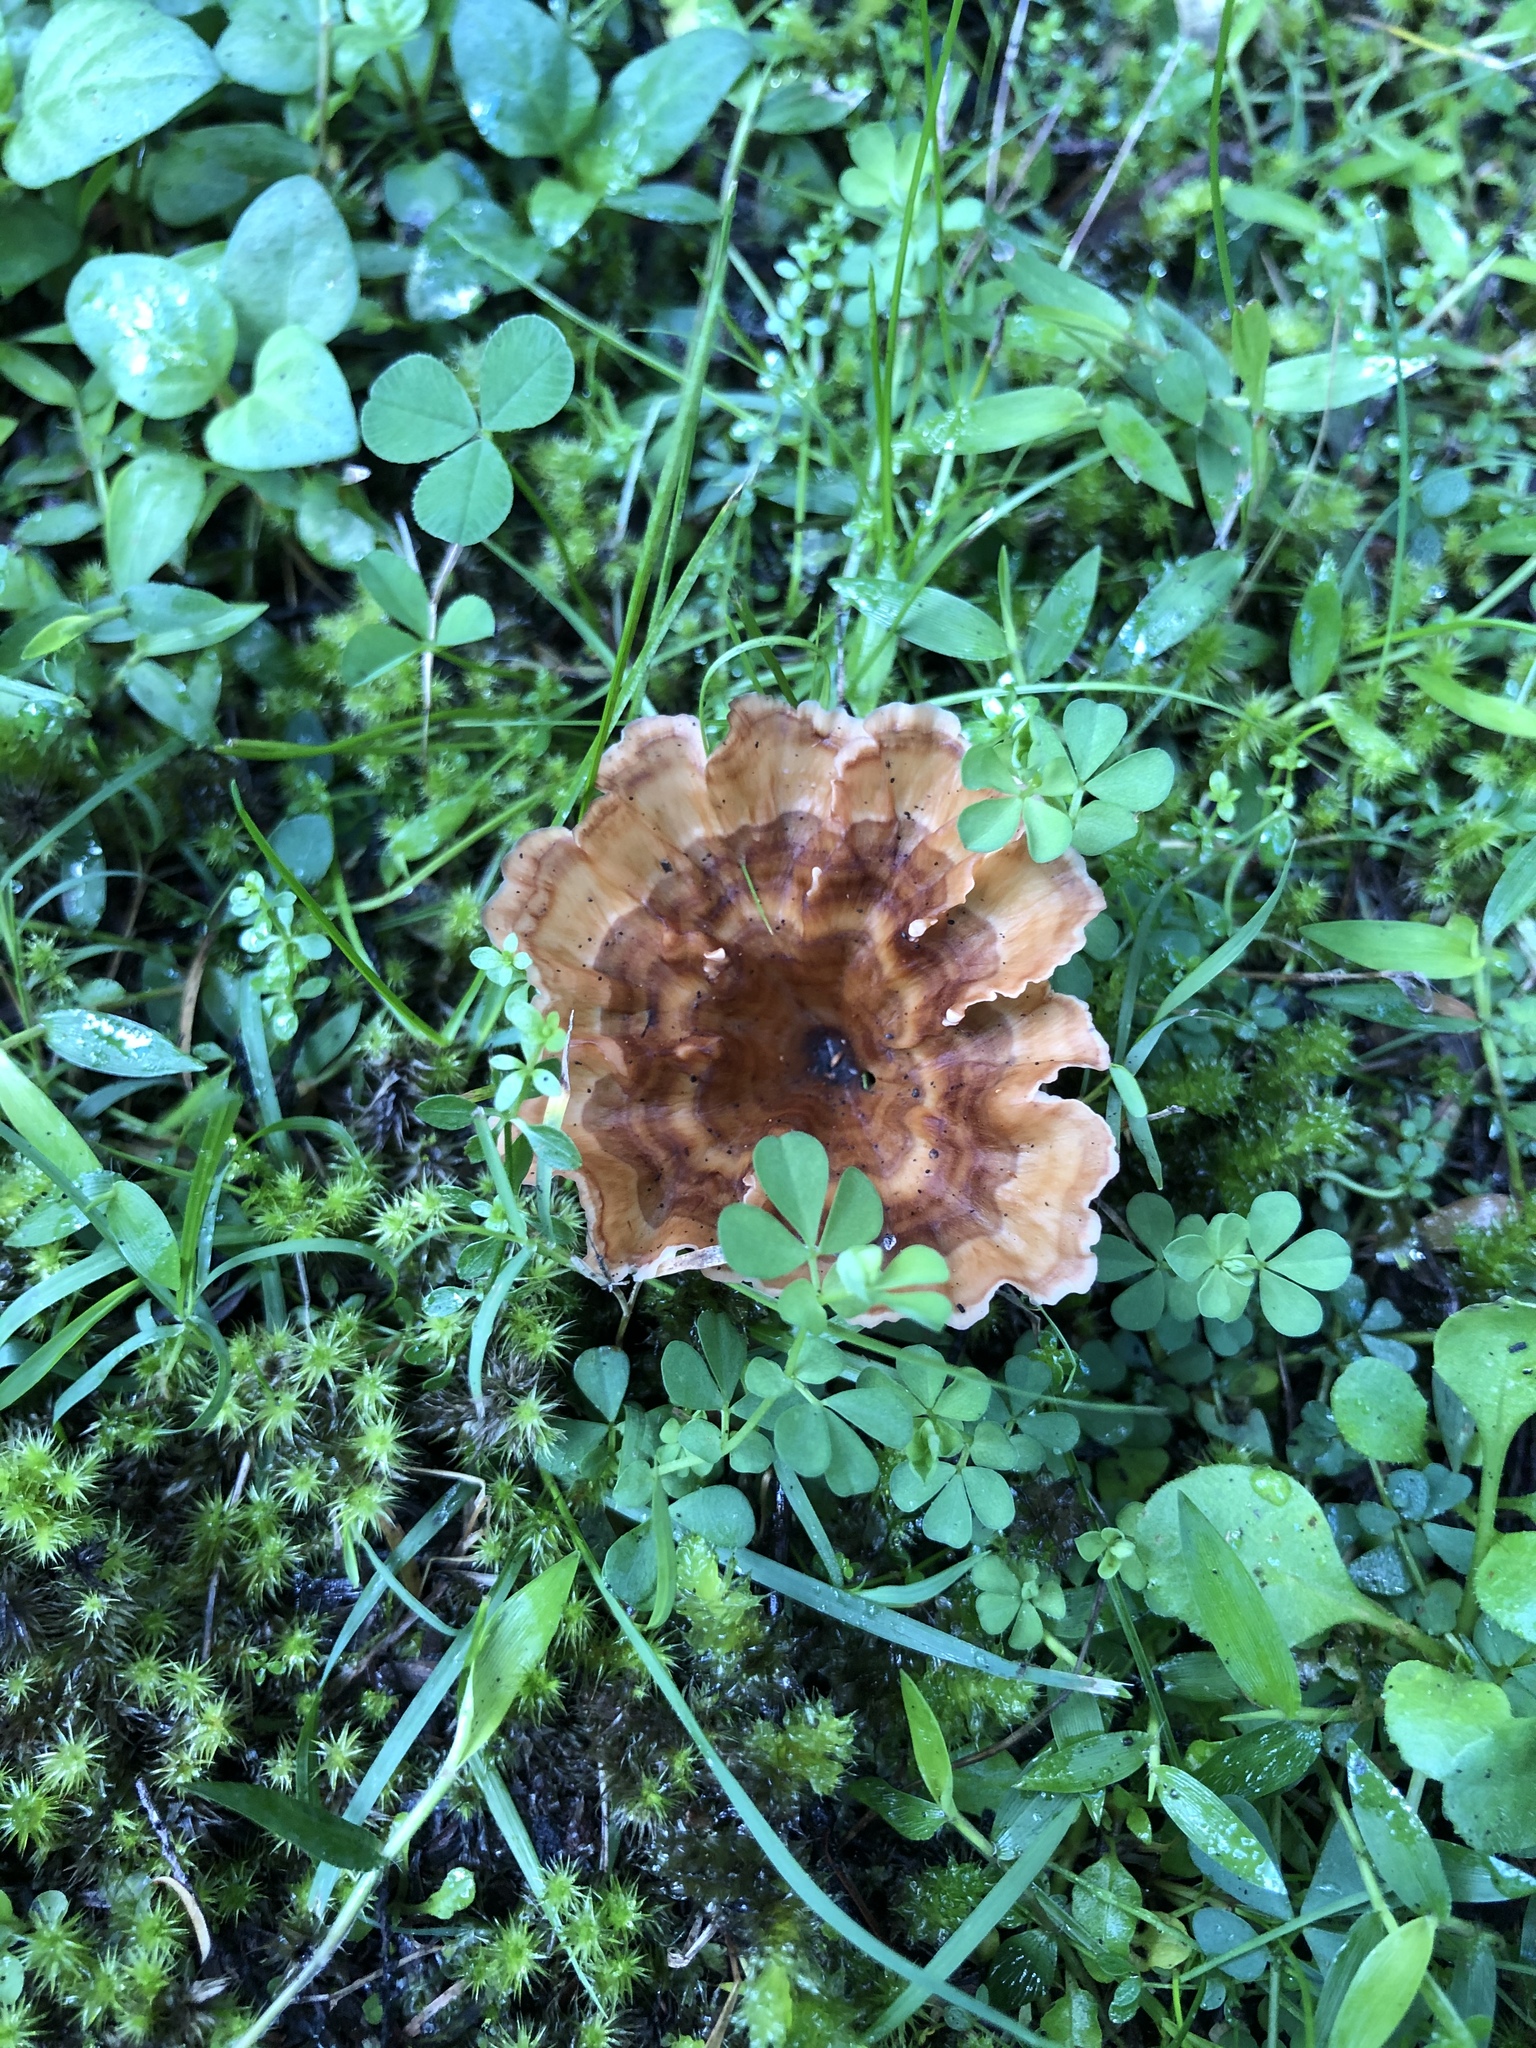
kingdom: Fungi
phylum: Basidiomycota
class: Agaricomycetes
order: Polyporales
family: Podoscyphaceae
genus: Podoscypha
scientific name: Podoscypha petalodes
